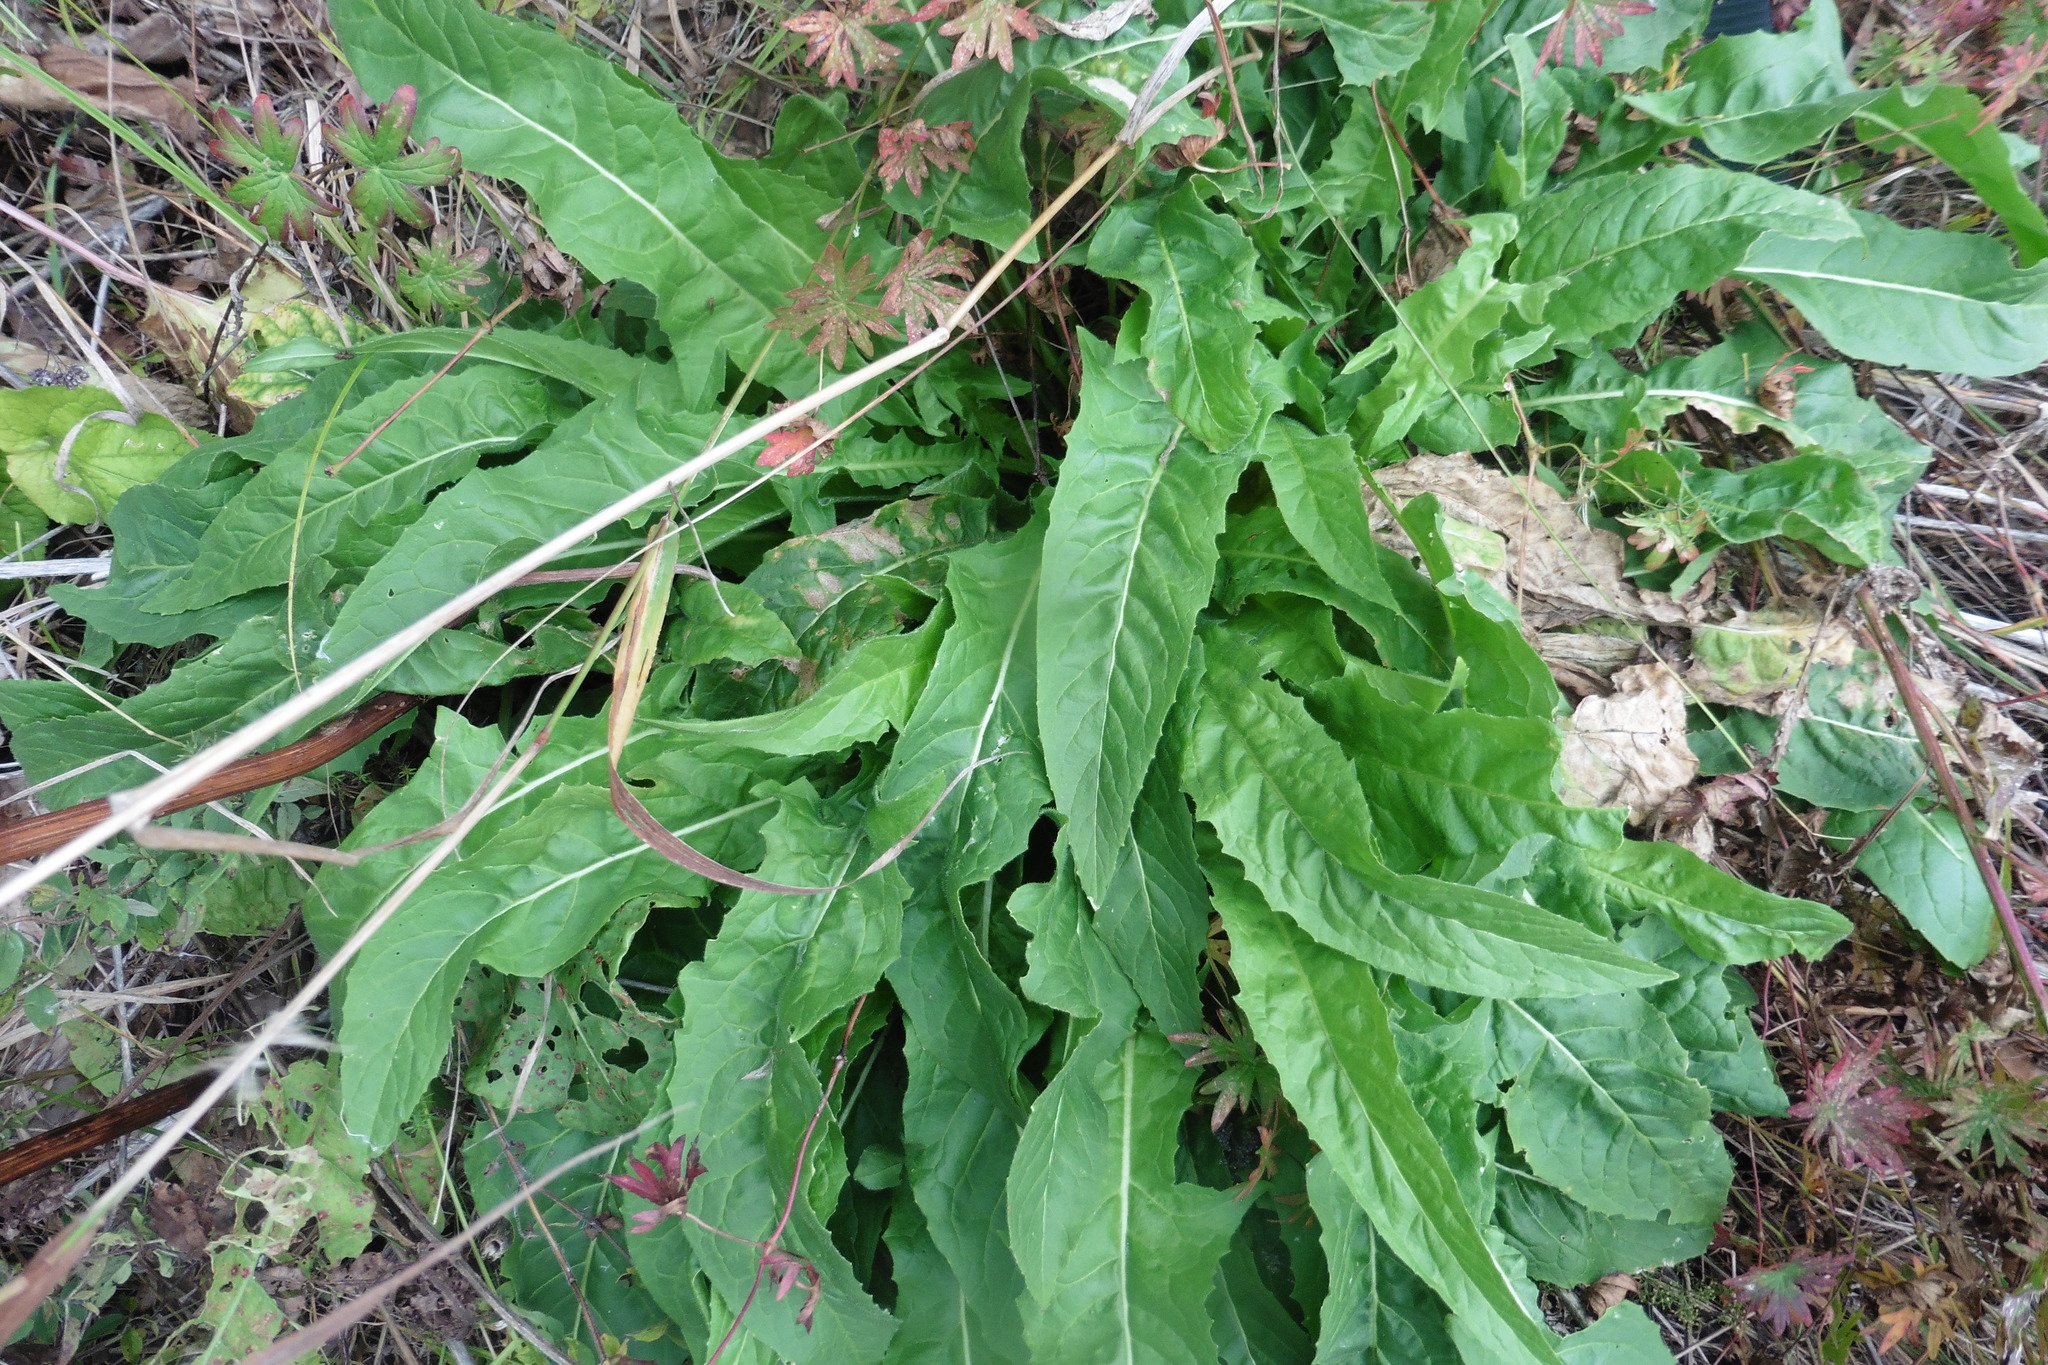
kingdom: Plantae
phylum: Tracheophyta
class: Magnoliopsida
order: Brassicales
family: Brassicaceae
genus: Bunias
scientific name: Bunias orientalis
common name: Warty-cabbage
